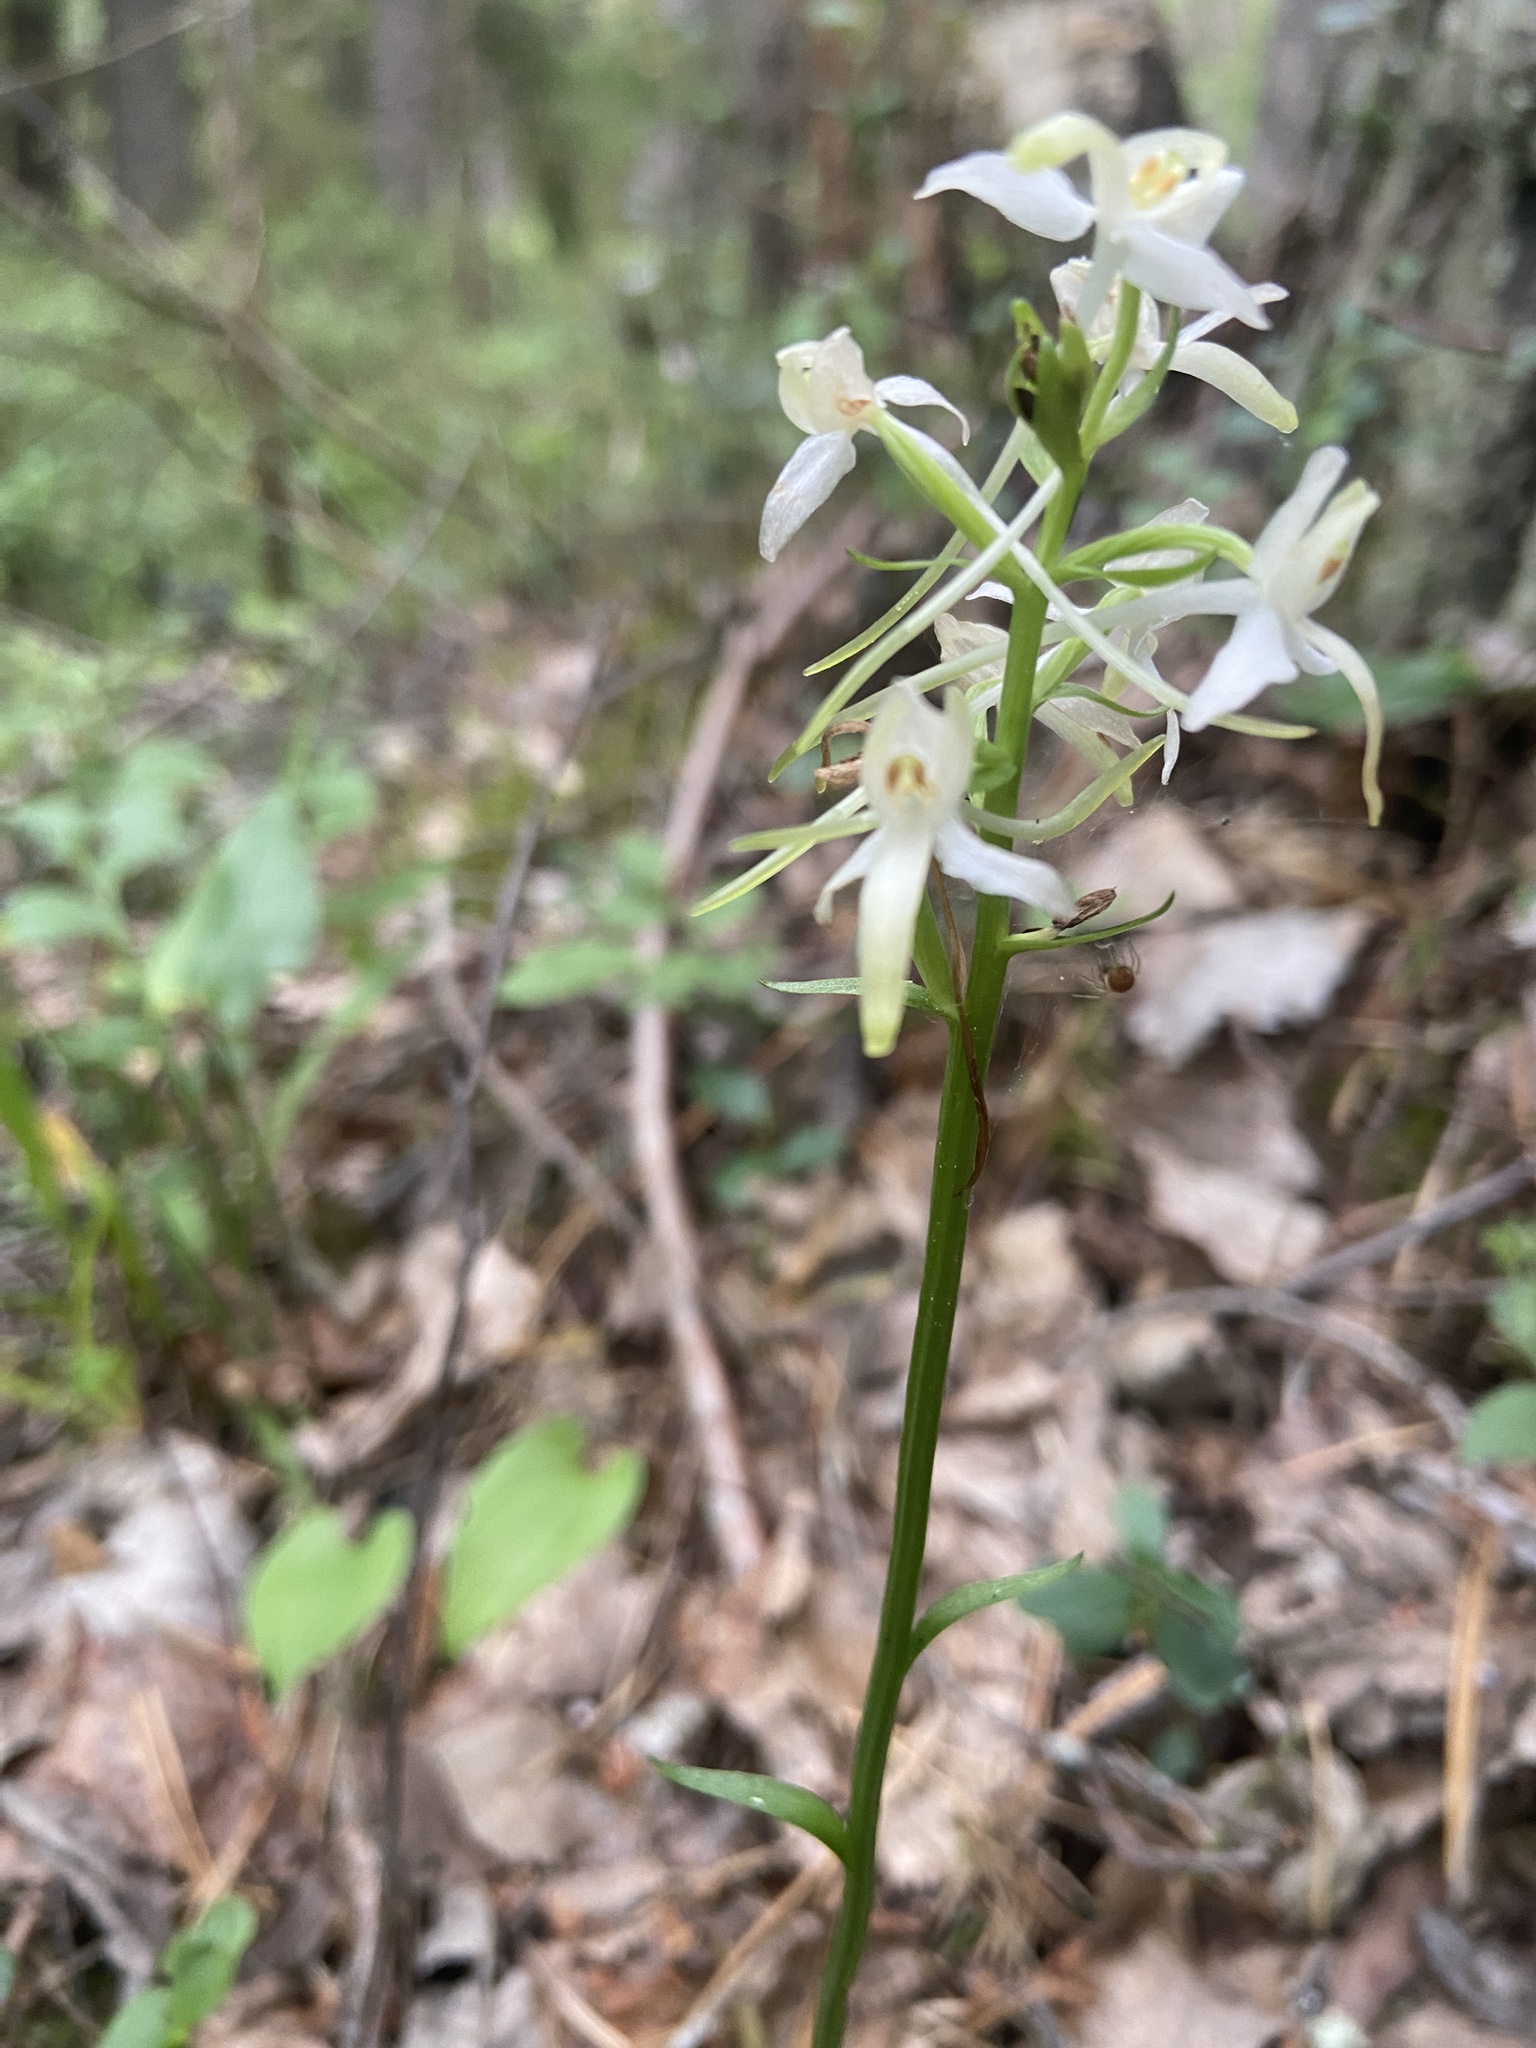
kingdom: Plantae
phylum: Tracheophyta
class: Liliopsida
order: Asparagales
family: Orchidaceae
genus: Platanthera
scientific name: Platanthera bifolia
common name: Lesser butterfly-orchid
